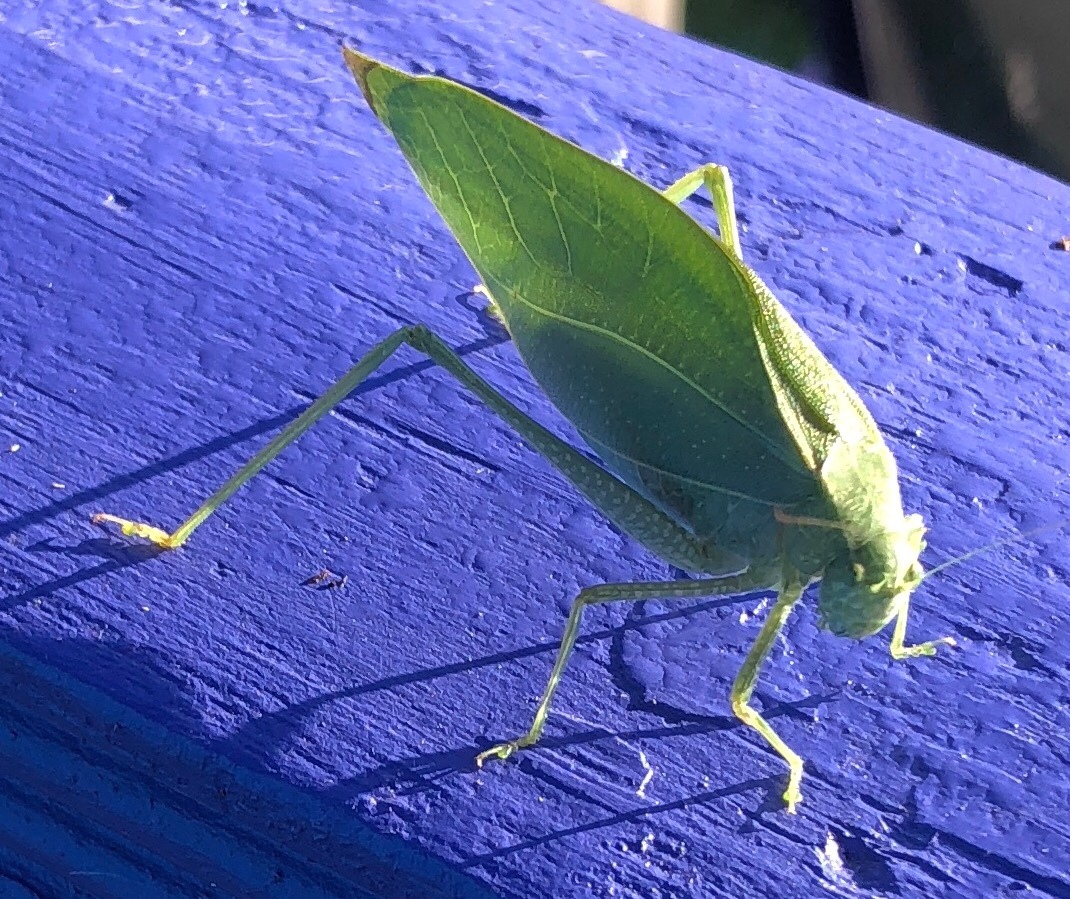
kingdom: Animalia
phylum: Arthropoda
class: Insecta
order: Orthoptera
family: Tettigoniidae
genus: Microcentrum
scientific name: Microcentrum rhombifolium
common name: Broad-winged katydid
